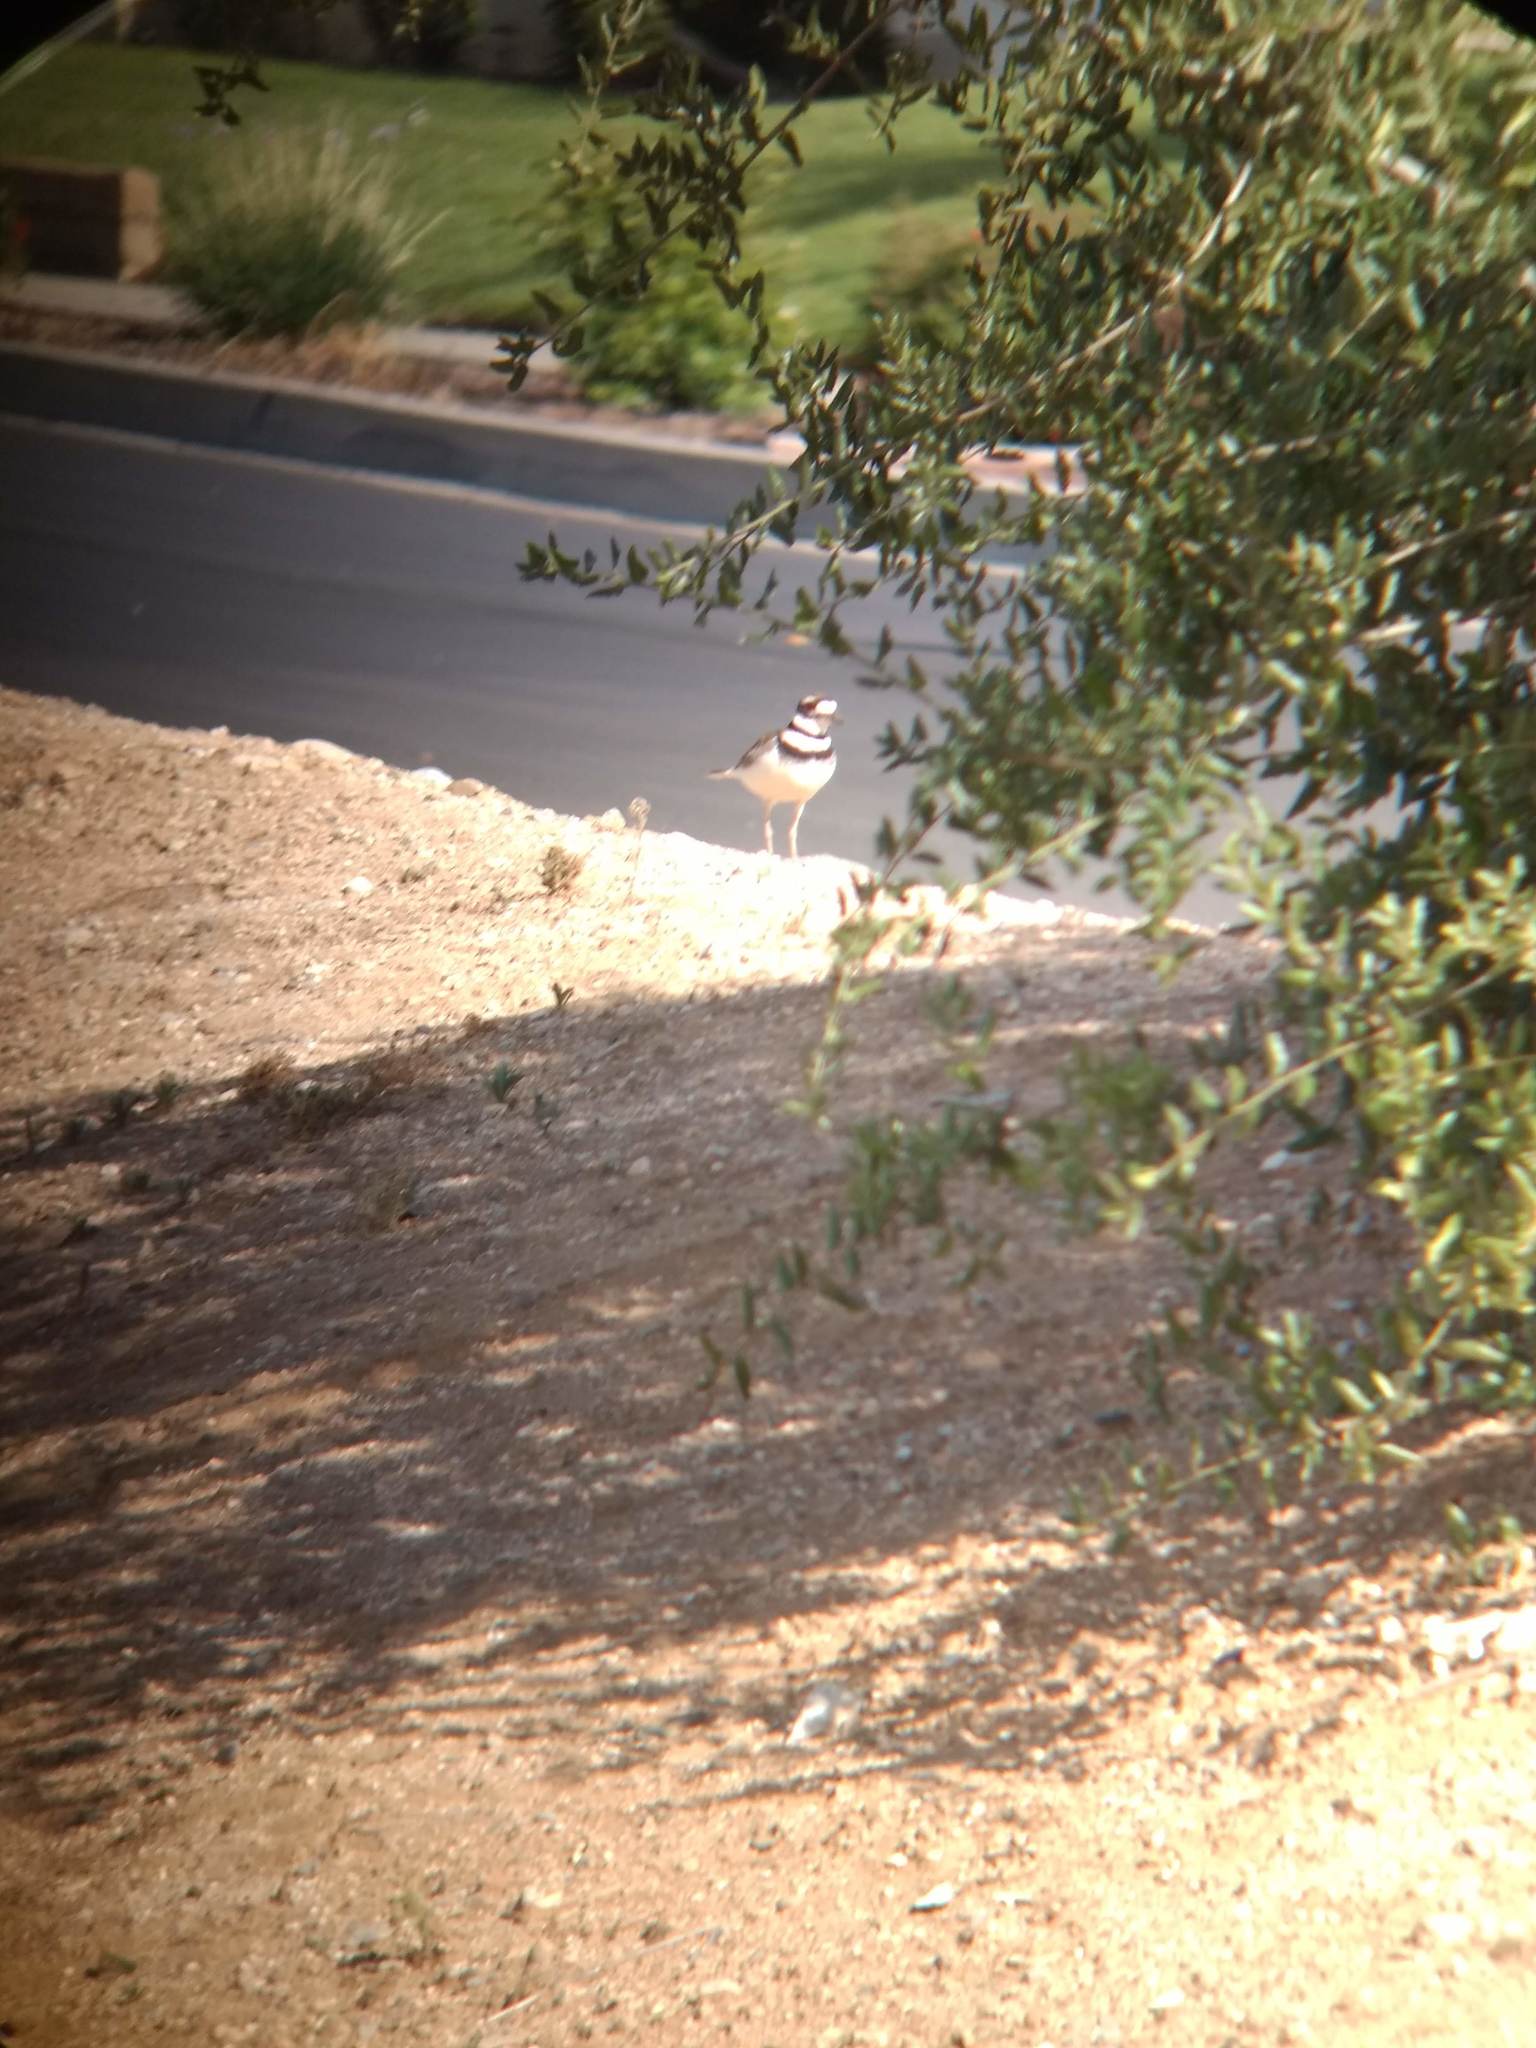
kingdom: Animalia
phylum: Chordata
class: Aves
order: Charadriiformes
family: Charadriidae
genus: Charadrius
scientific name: Charadrius vociferus
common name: Killdeer
